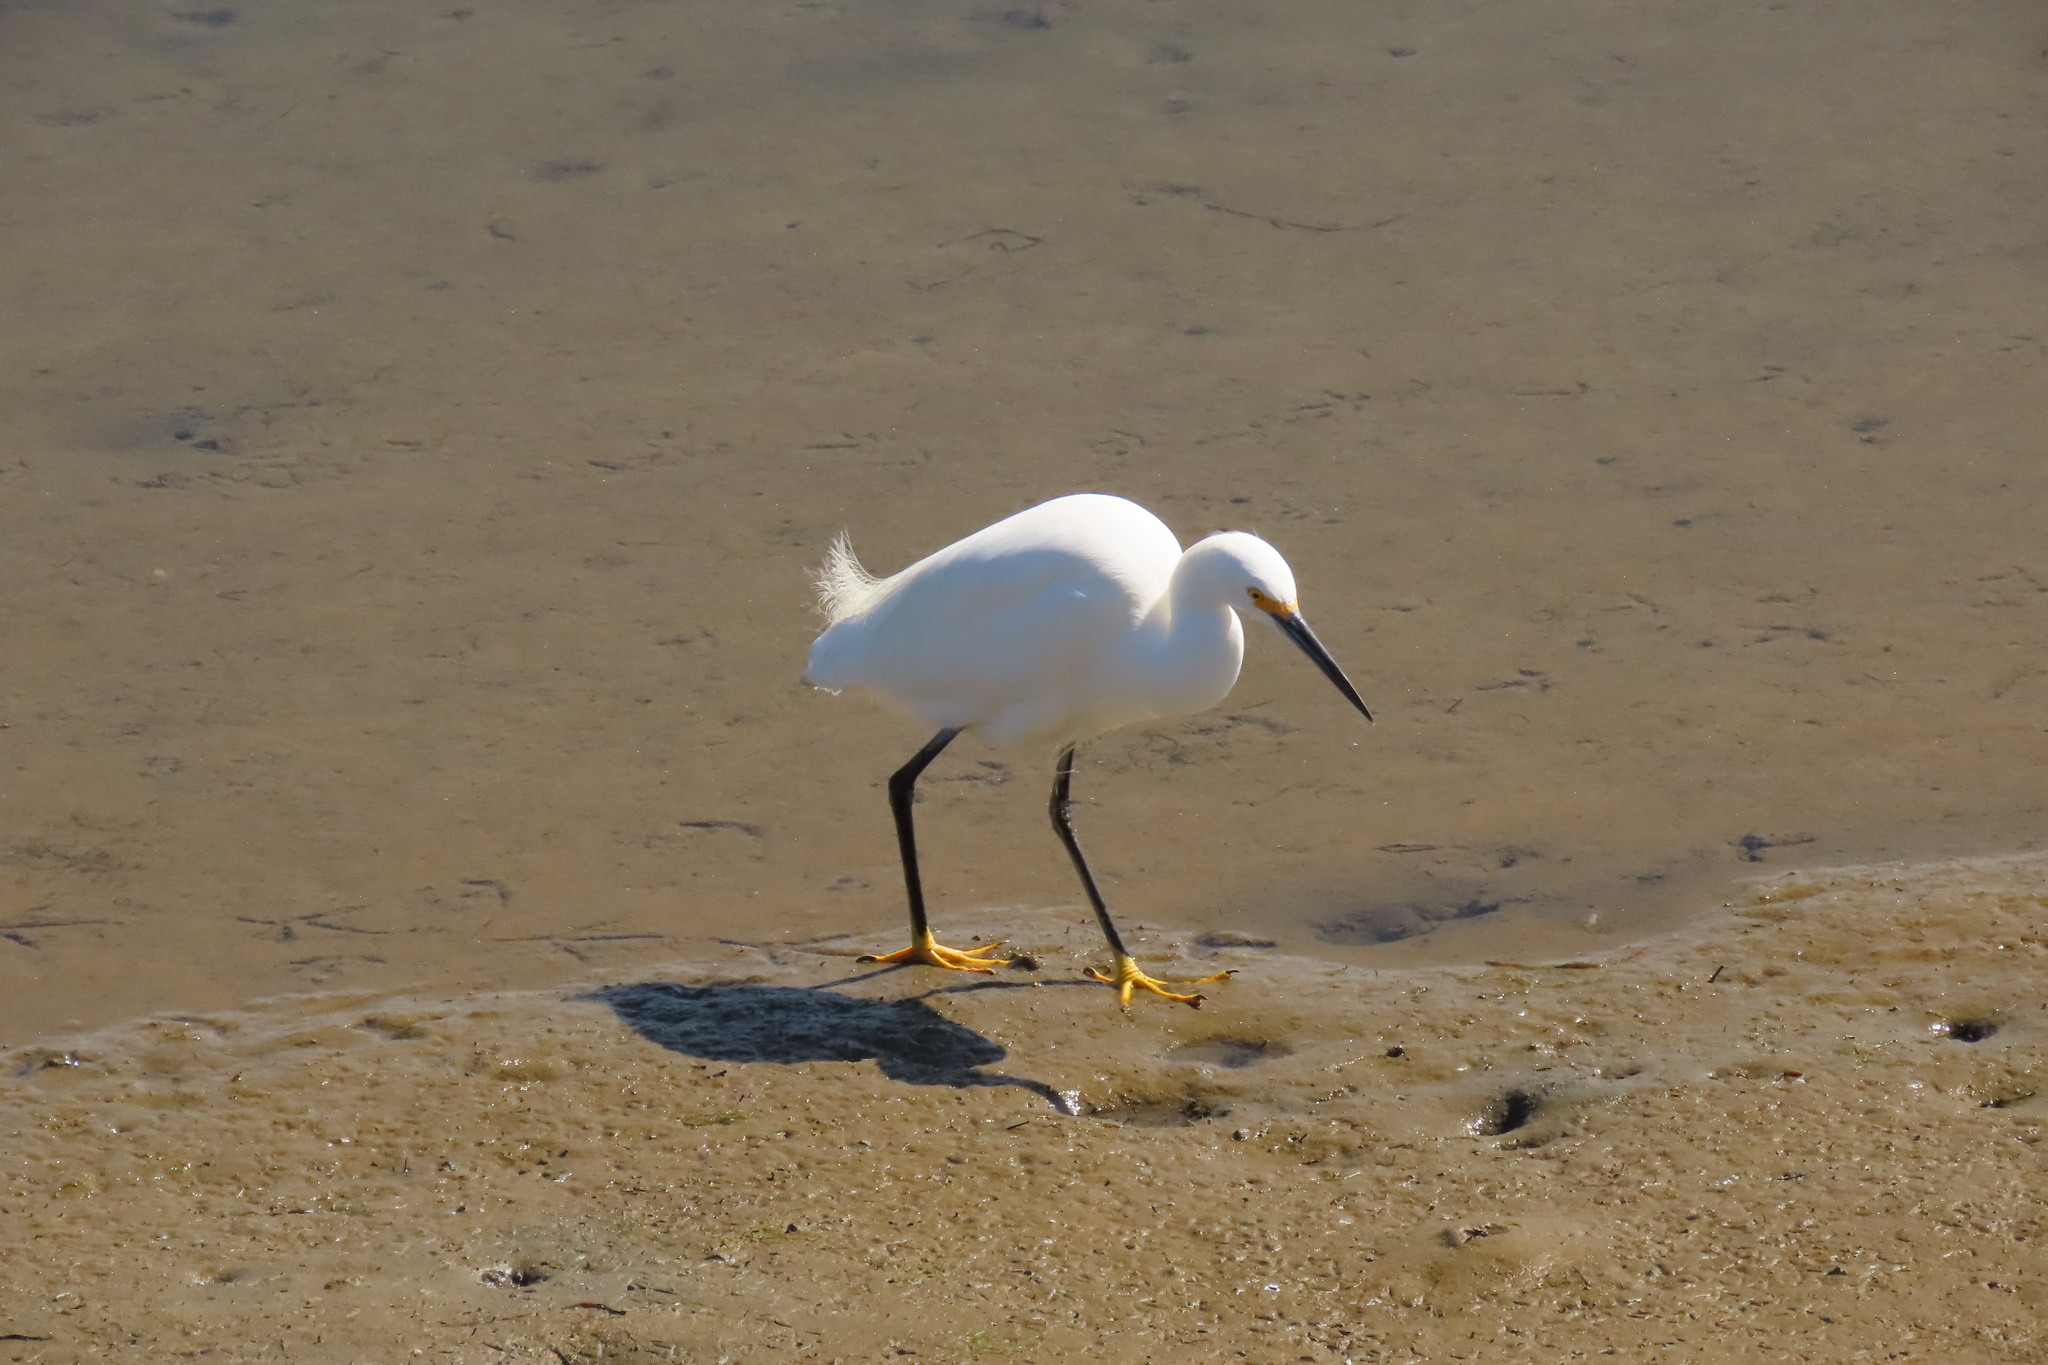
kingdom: Animalia
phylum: Chordata
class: Aves
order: Pelecaniformes
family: Ardeidae
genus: Egretta
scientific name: Egretta thula
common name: Snowy egret
